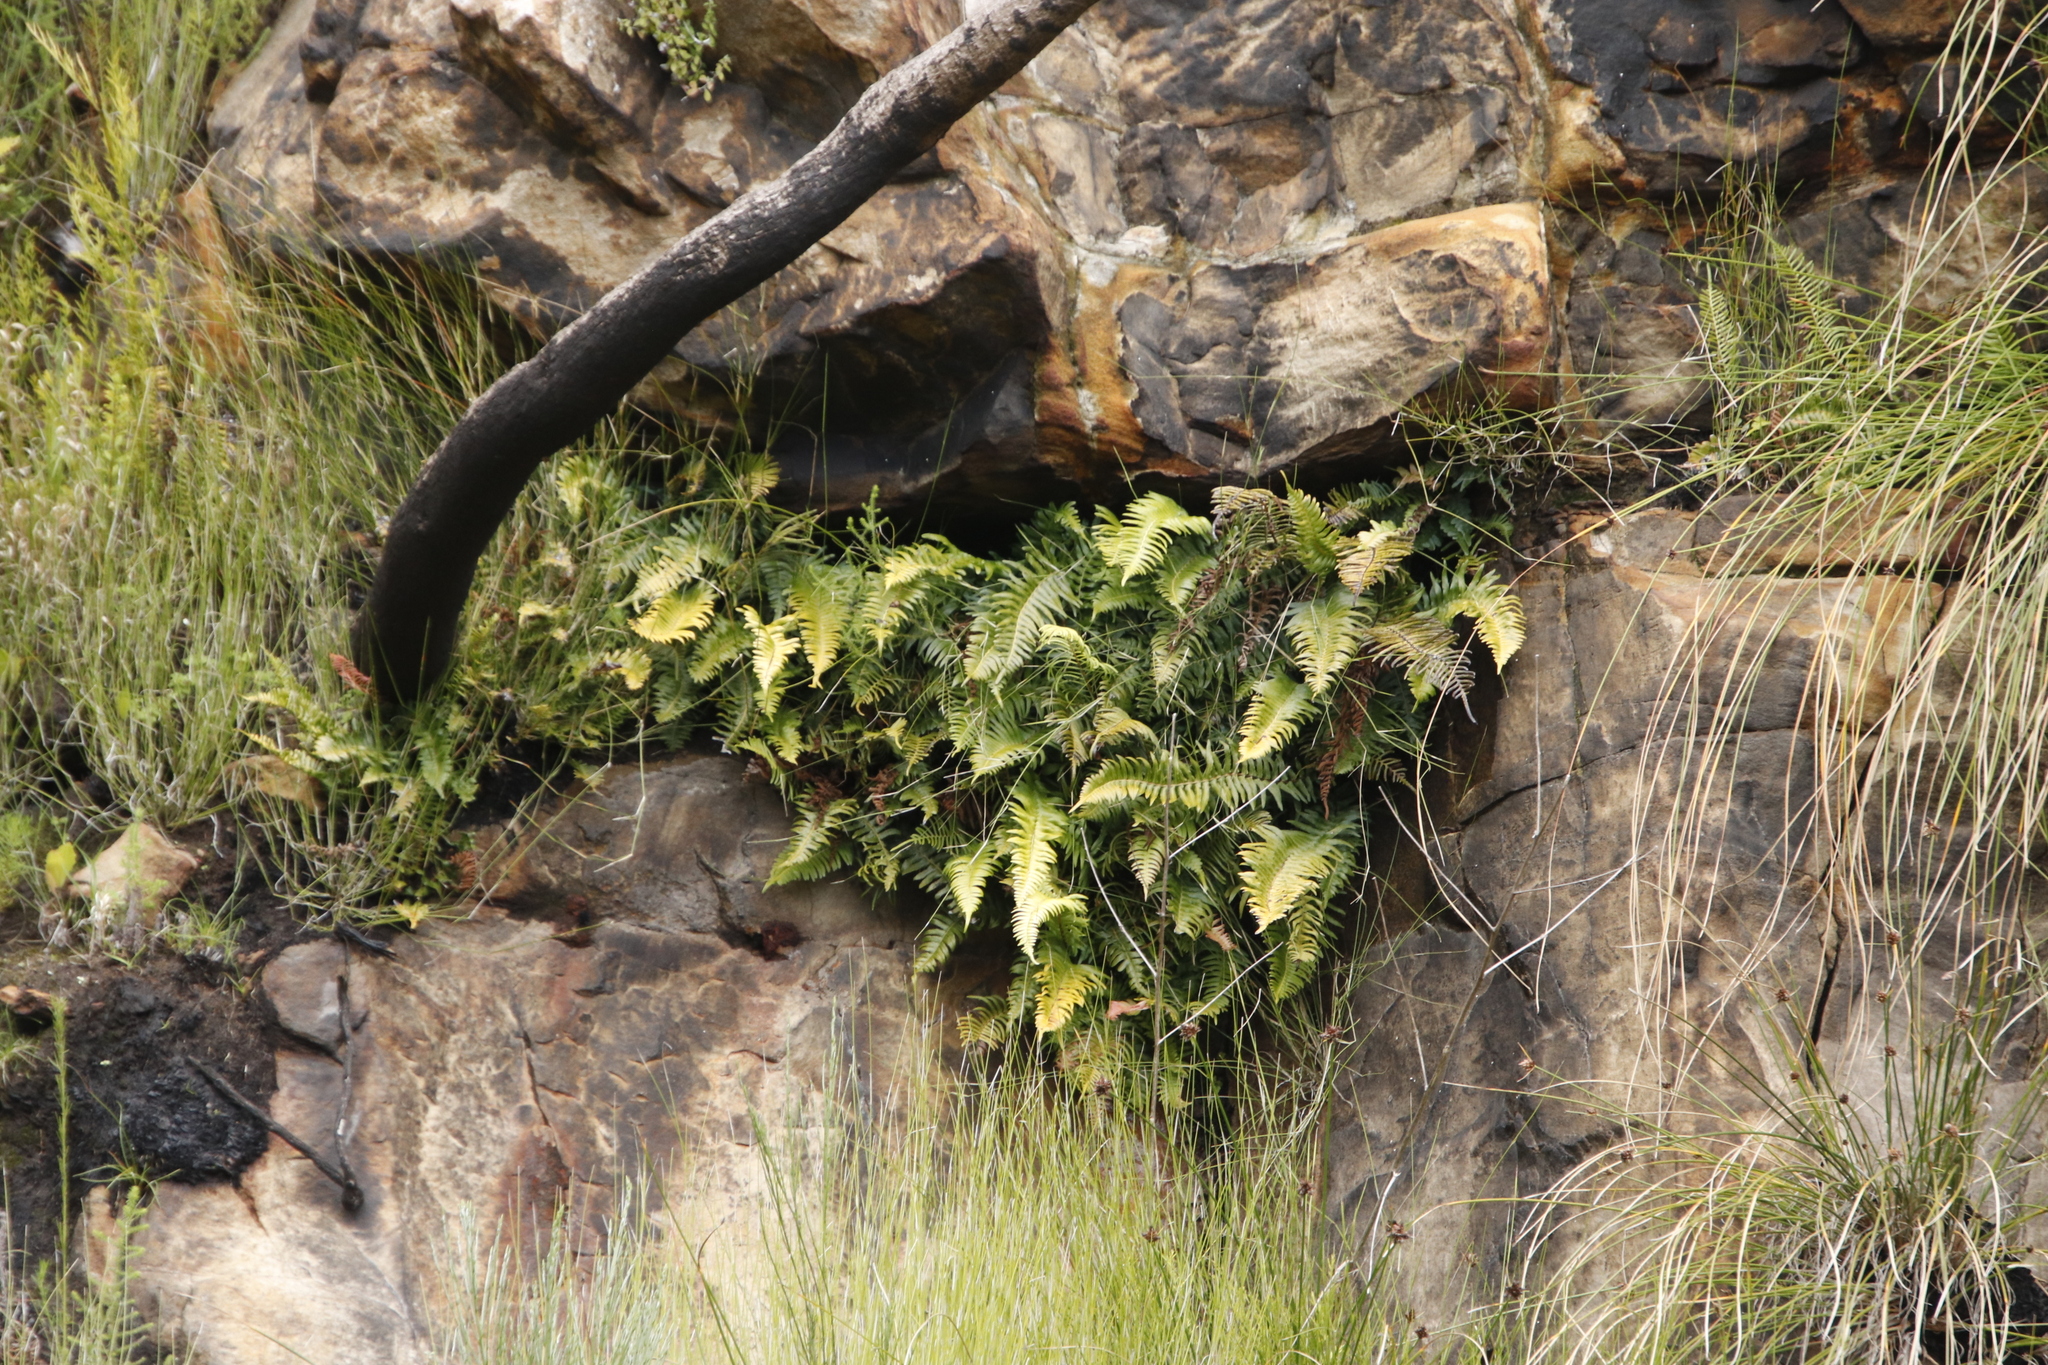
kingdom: Plantae
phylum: Tracheophyta
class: Polypodiopsida
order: Polypodiales
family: Blechnaceae
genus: Blechnum
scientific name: Blechnum punctulatum
